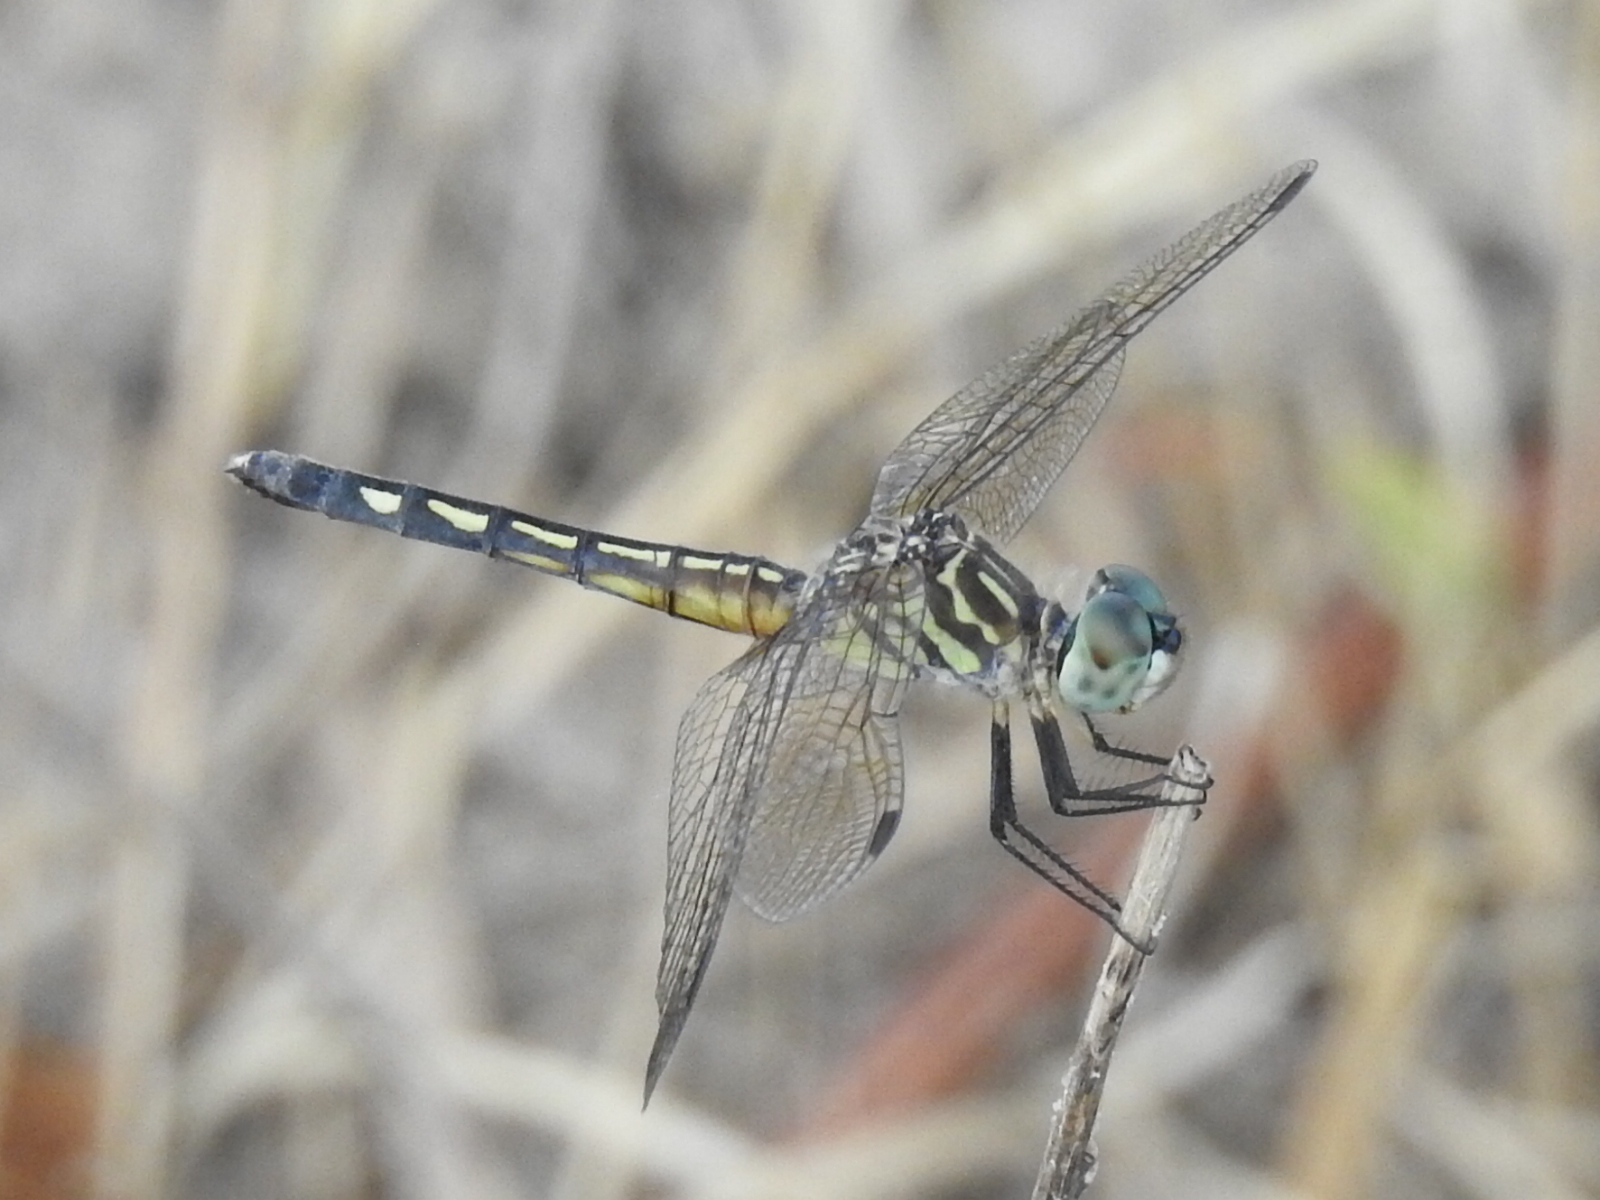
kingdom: Animalia
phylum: Arthropoda
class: Insecta
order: Odonata
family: Libellulidae
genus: Pachydiplax
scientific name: Pachydiplax longipennis
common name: Blue dasher
